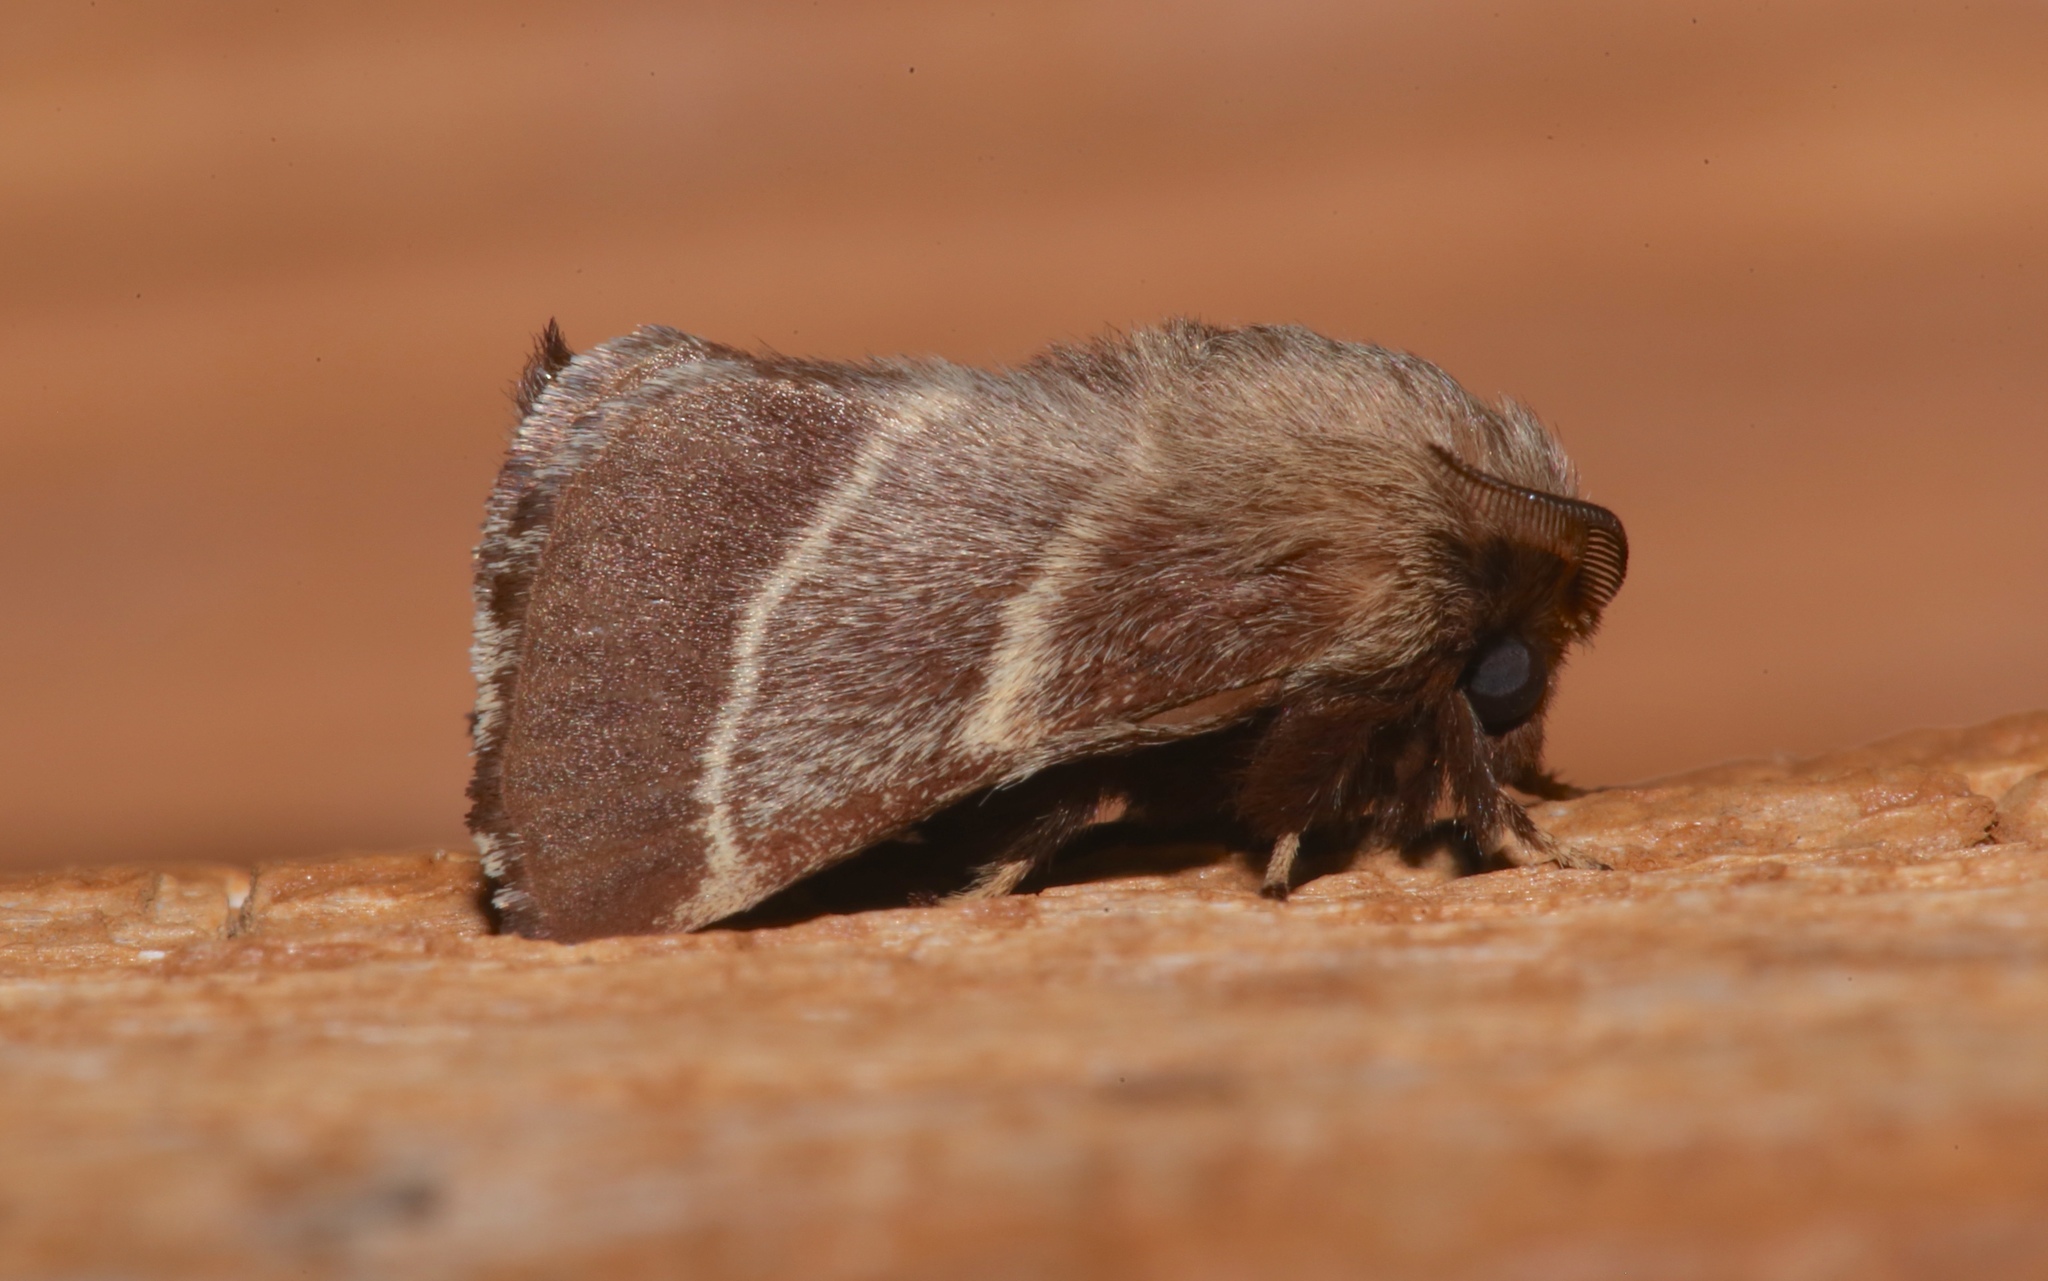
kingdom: Animalia
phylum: Arthropoda
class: Insecta
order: Lepidoptera
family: Lasiocampidae
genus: Malacosoma
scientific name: Malacosoma americana
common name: Eastern tent caterpillar moth
